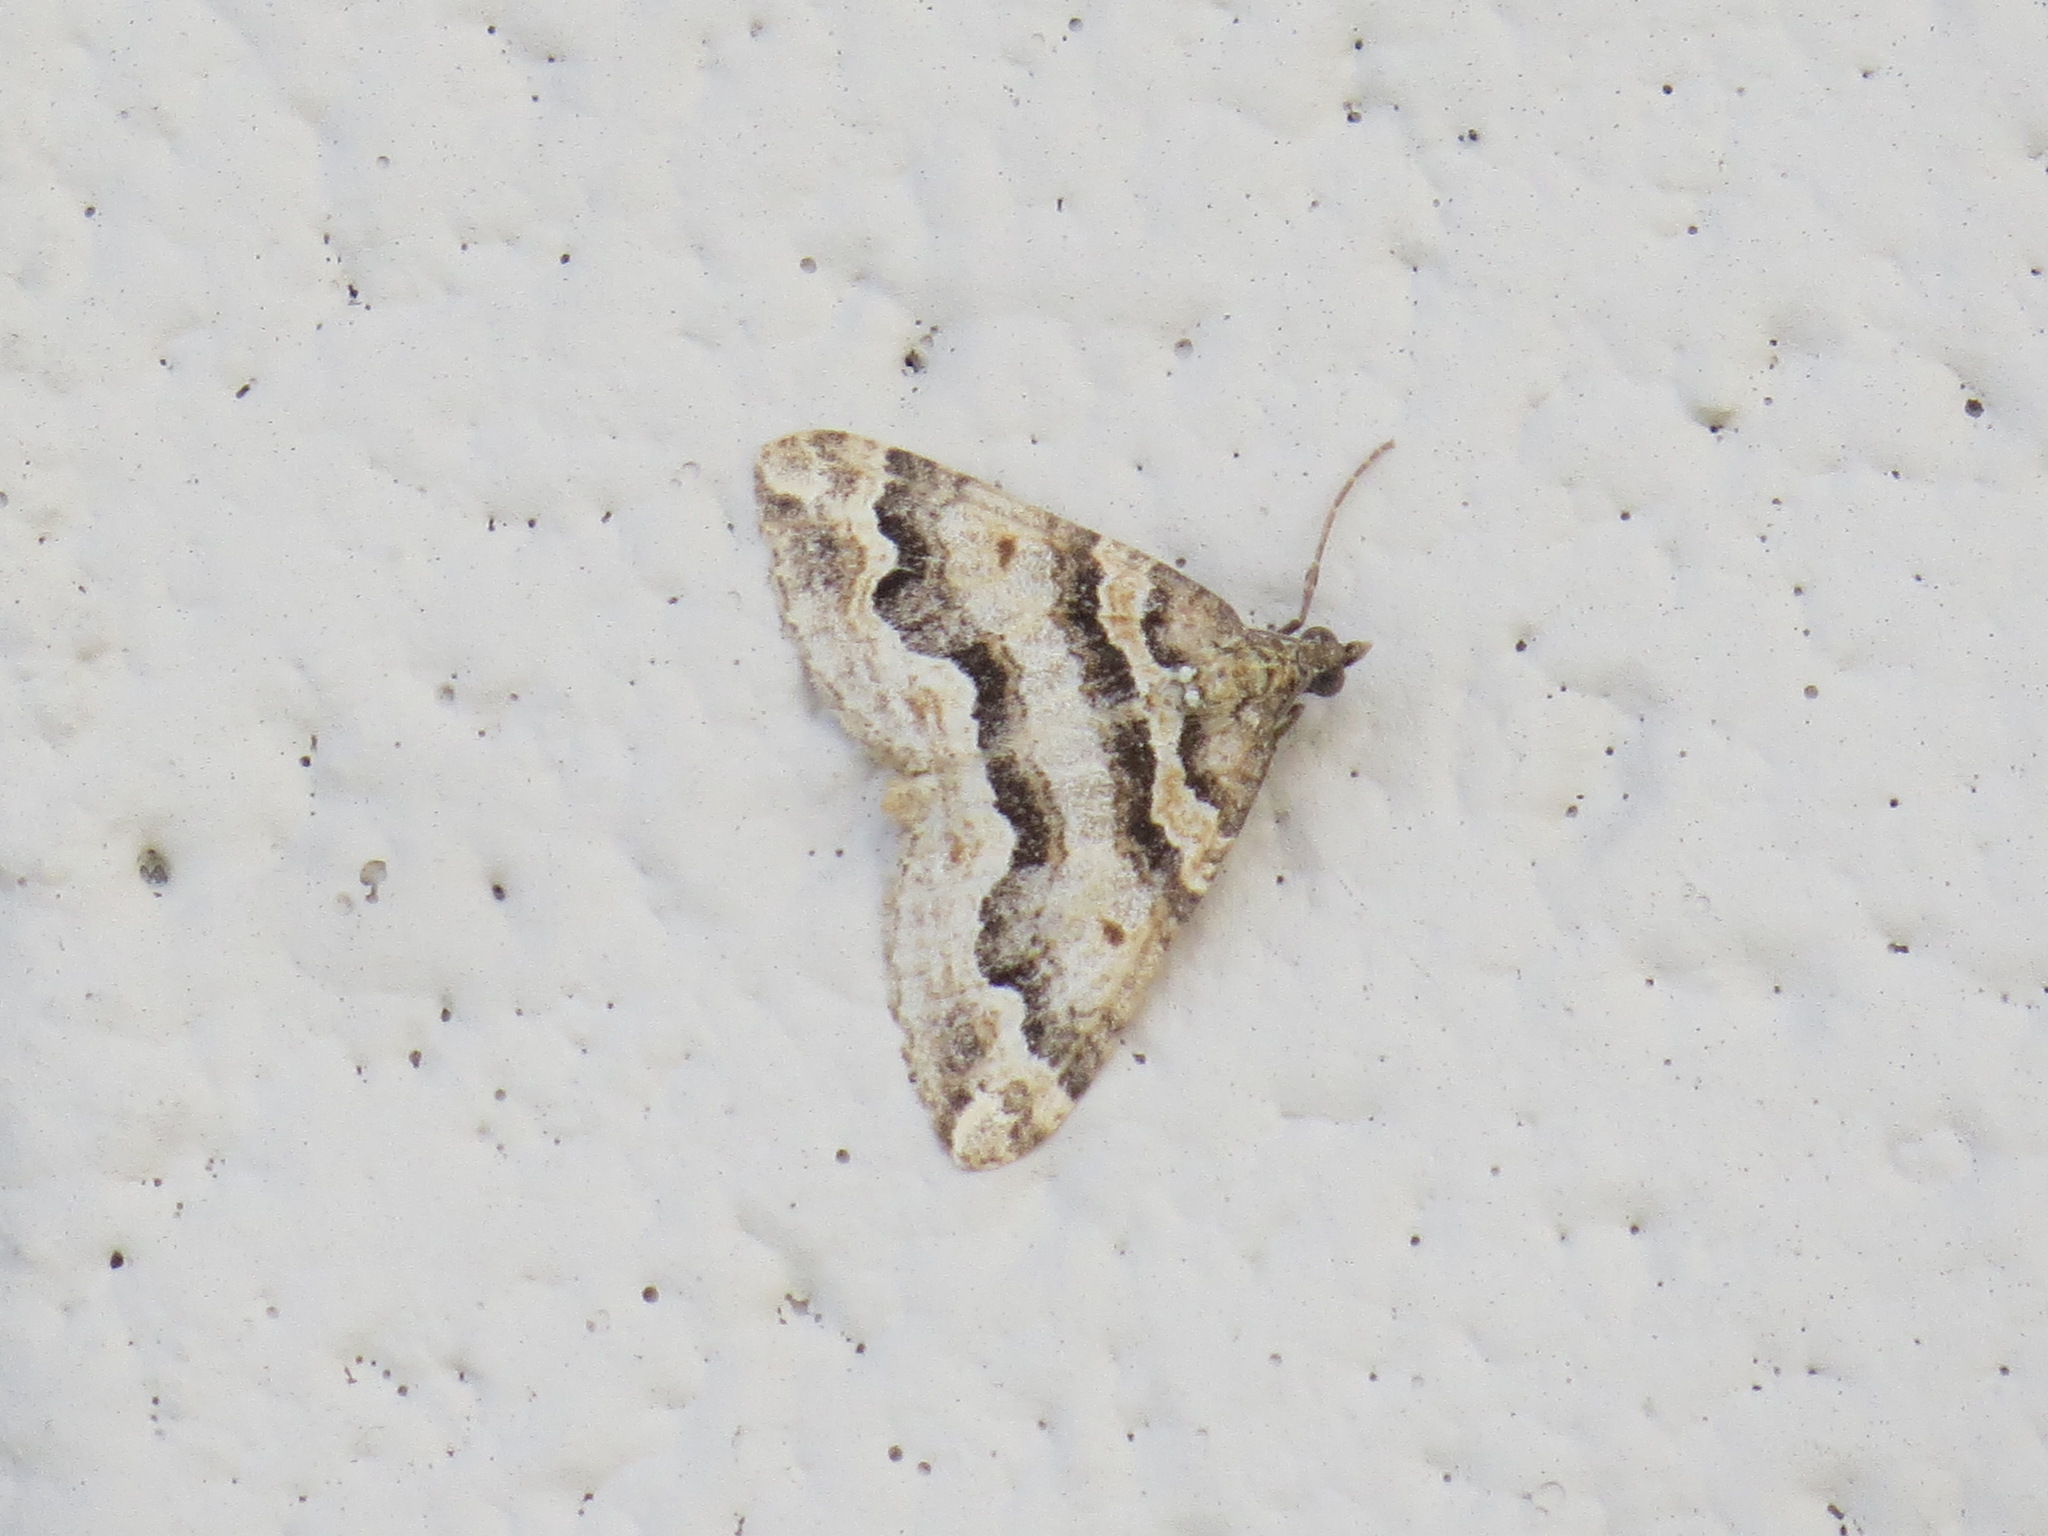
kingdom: Animalia
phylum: Arthropoda
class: Insecta
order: Lepidoptera
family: Geometridae
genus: Perizoma
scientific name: Perizoma epictata
